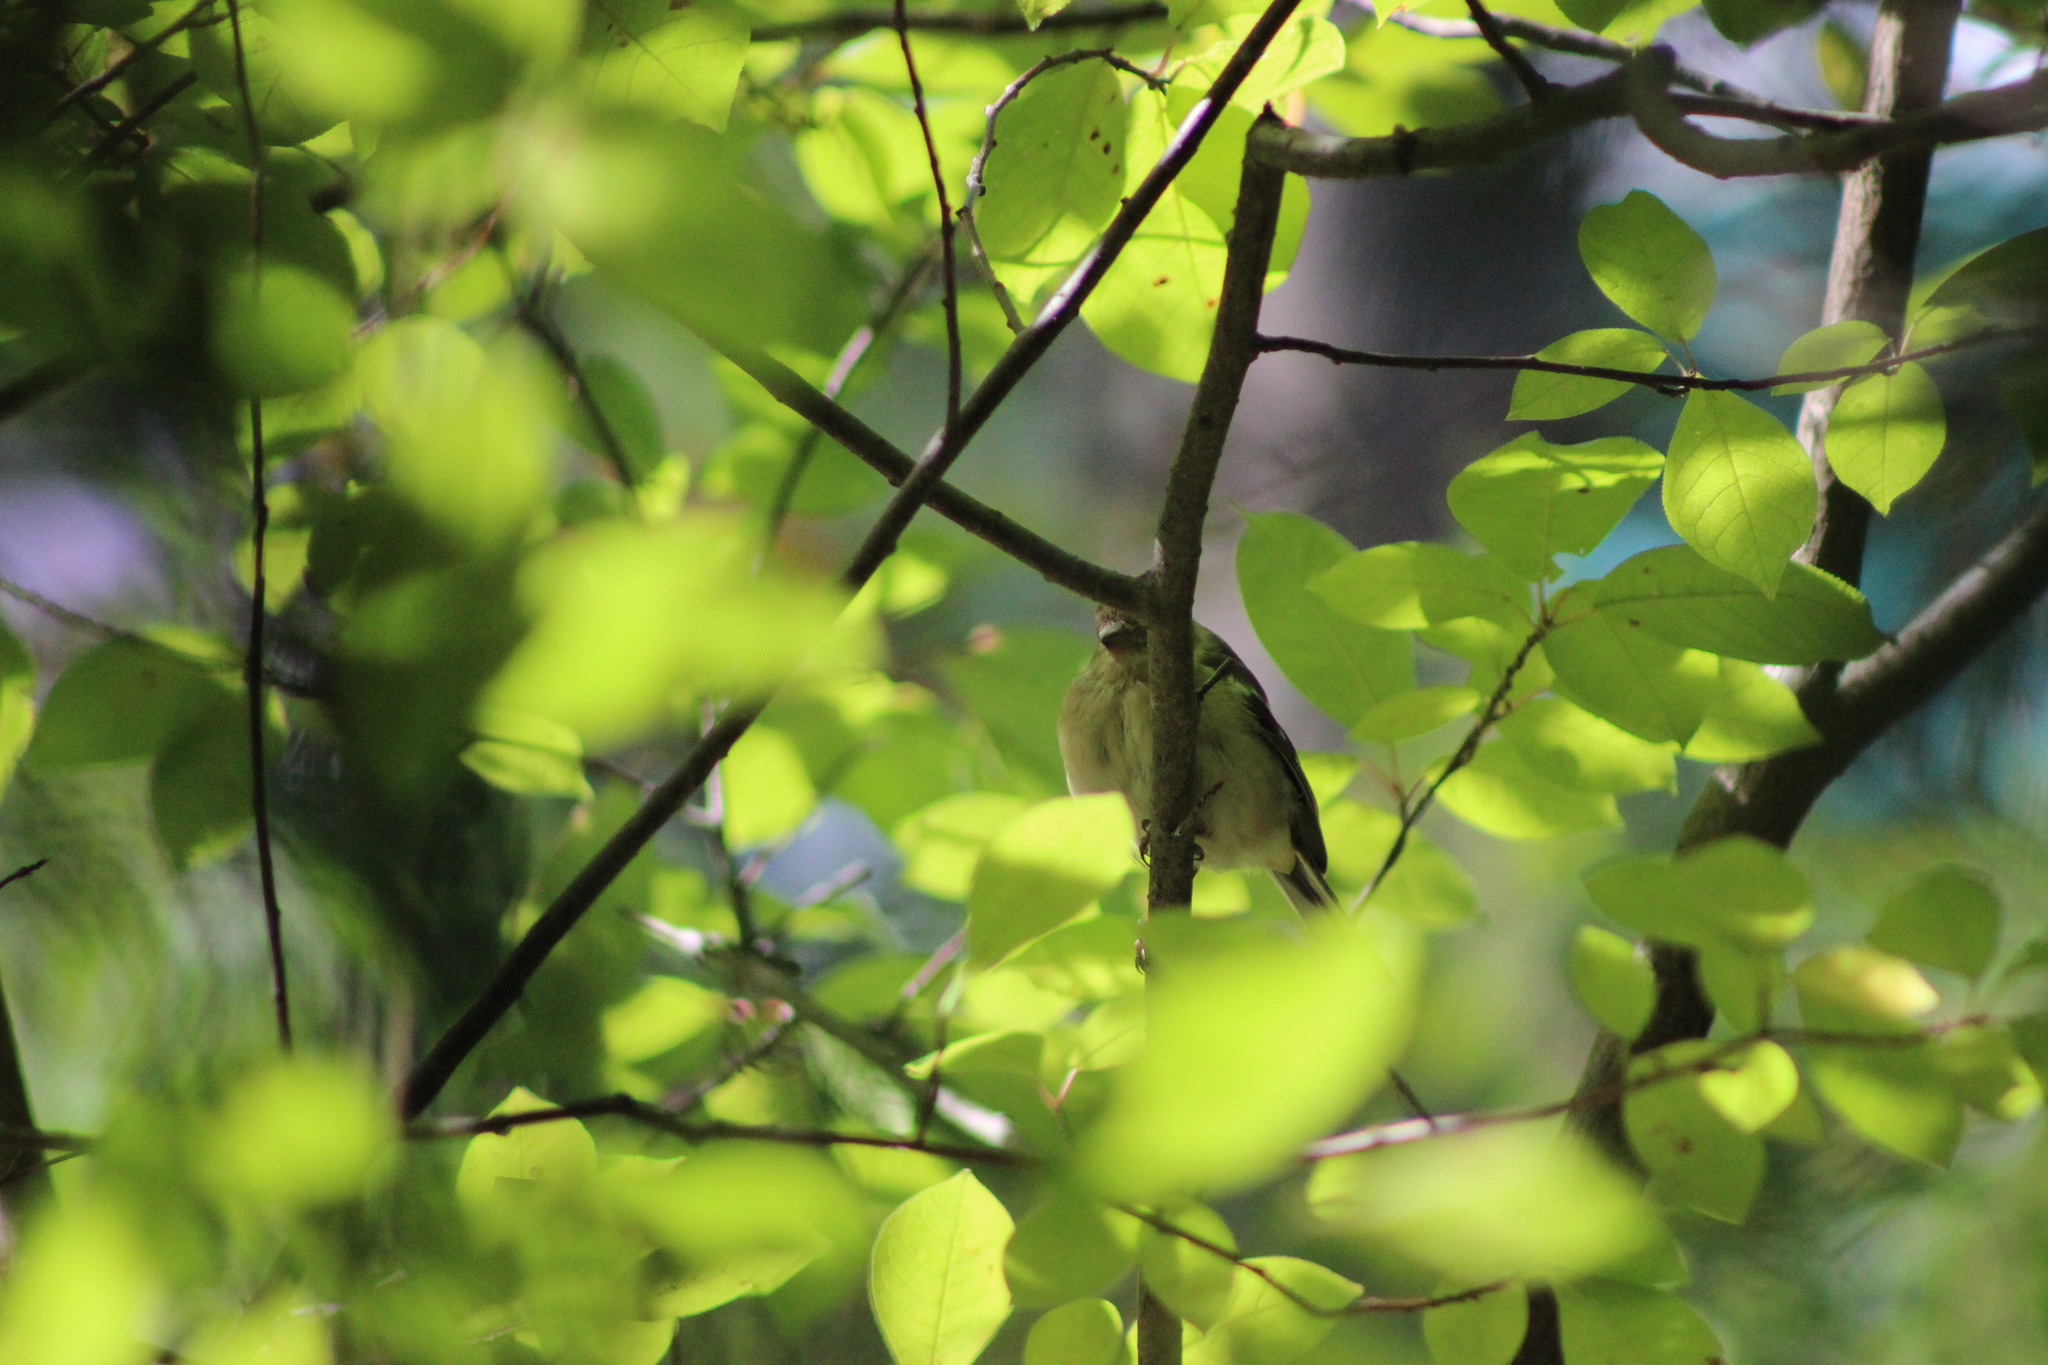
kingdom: Animalia
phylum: Chordata
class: Aves
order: Passeriformes
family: Fringillidae
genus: Fringilla
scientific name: Fringilla coelebs
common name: Common chaffinch
